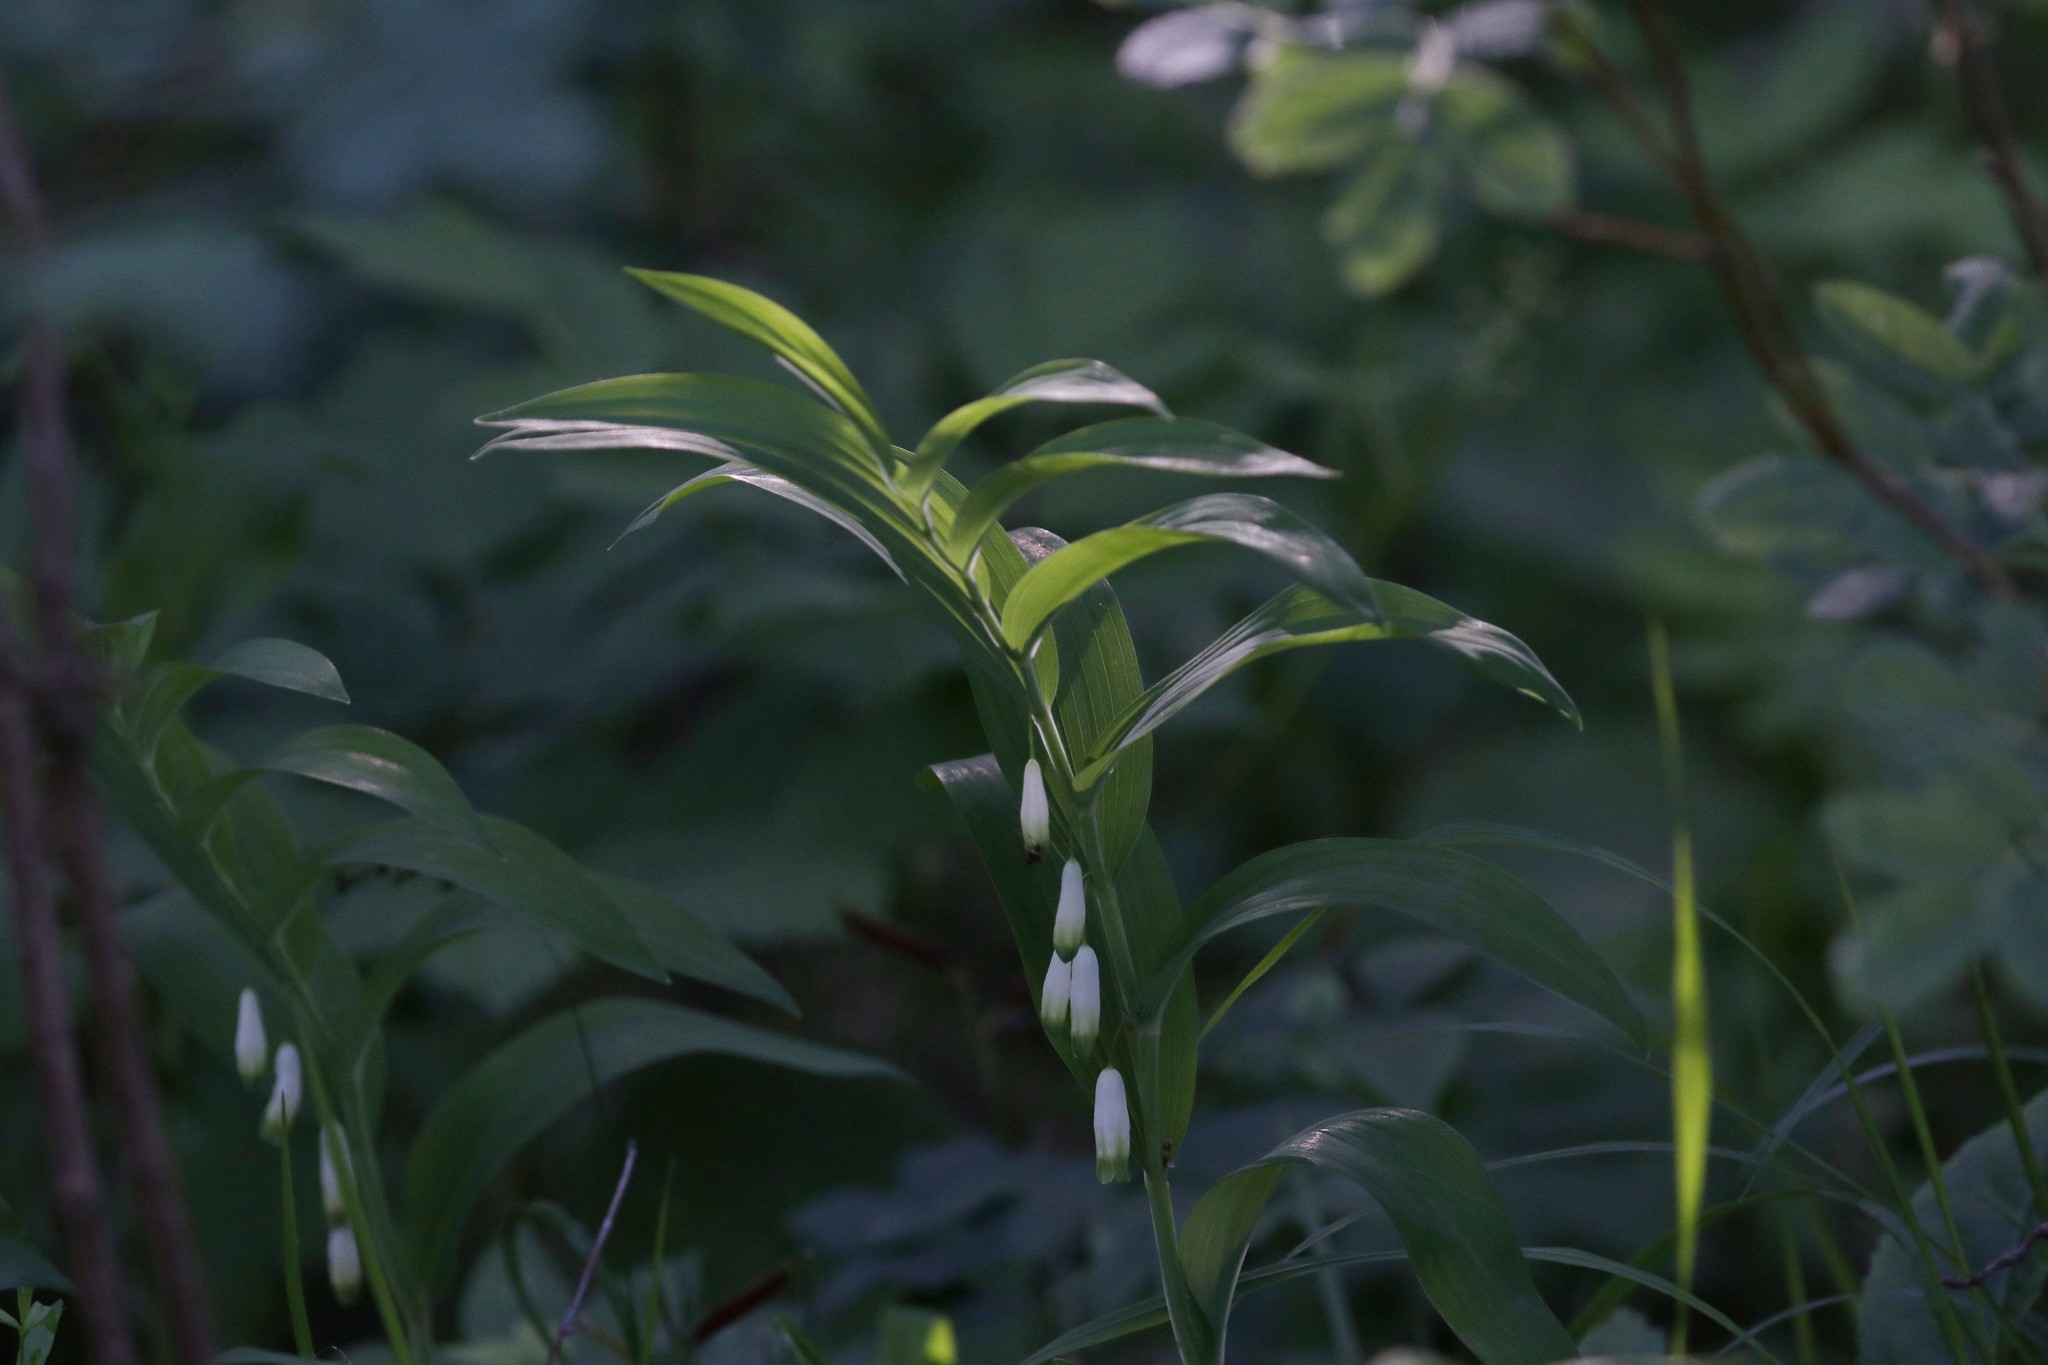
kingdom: Plantae
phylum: Tracheophyta
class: Liliopsida
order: Asparagales
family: Asparagaceae
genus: Polygonatum
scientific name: Polygonatum odoratum
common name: Angular solomon's-seal
